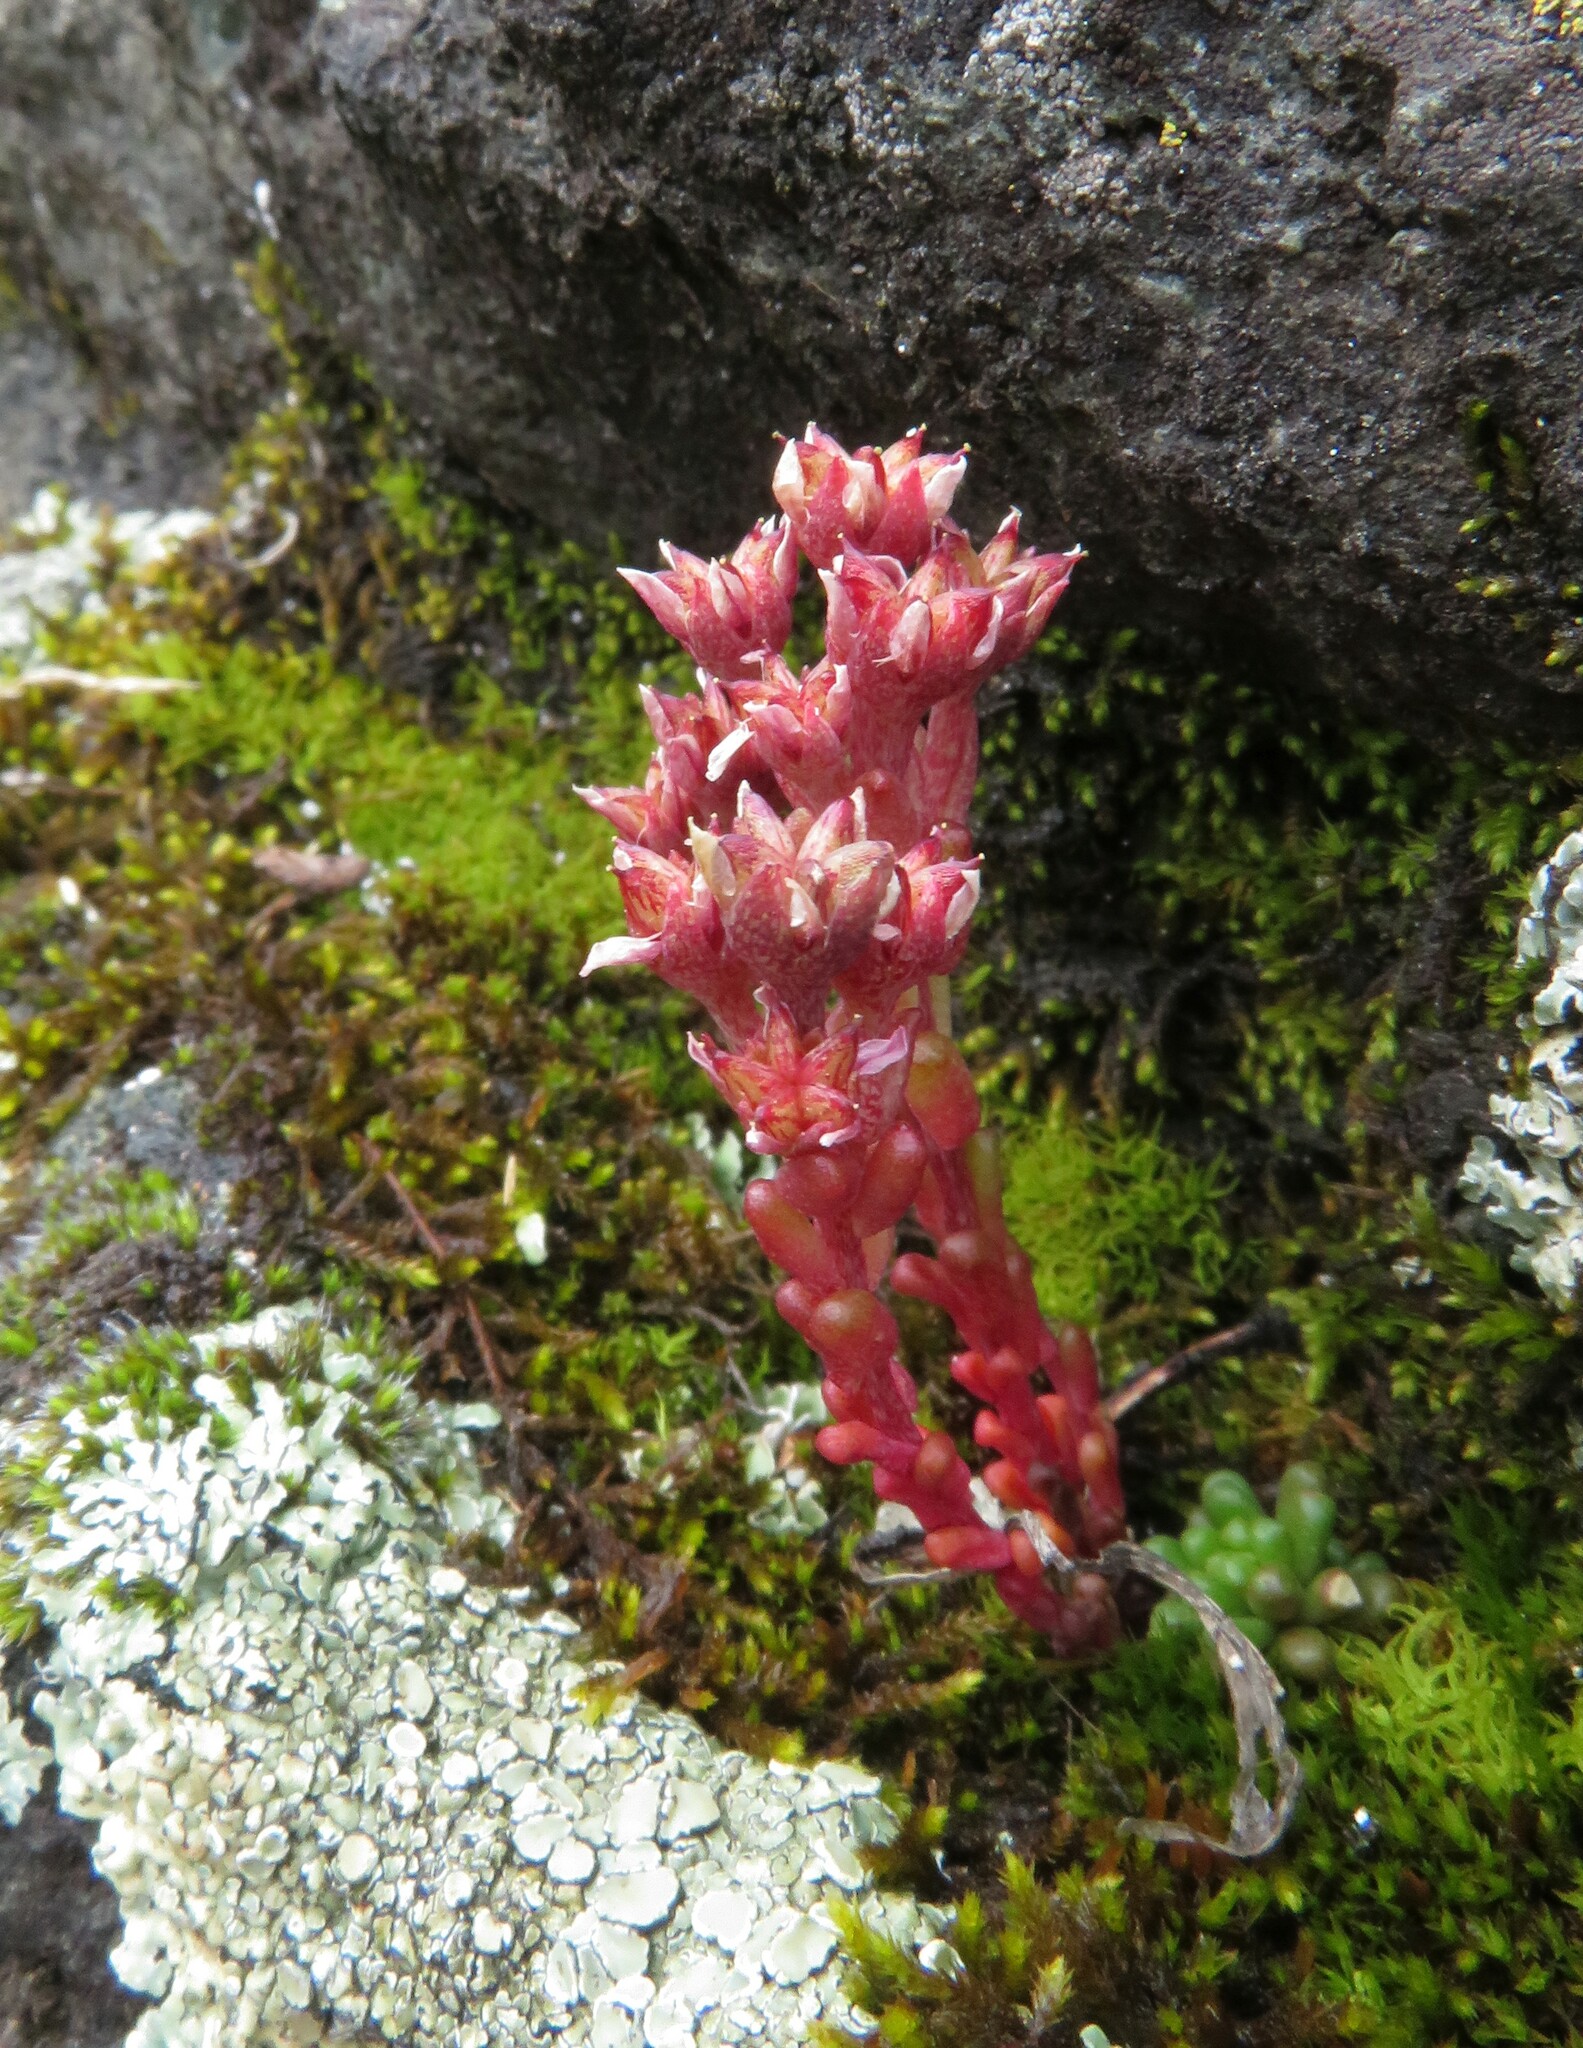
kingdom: Plantae
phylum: Tracheophyta
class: Magnoliopsida
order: Saxifragales
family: Crassulaceae
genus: Sedum
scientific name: Sedum atratum
